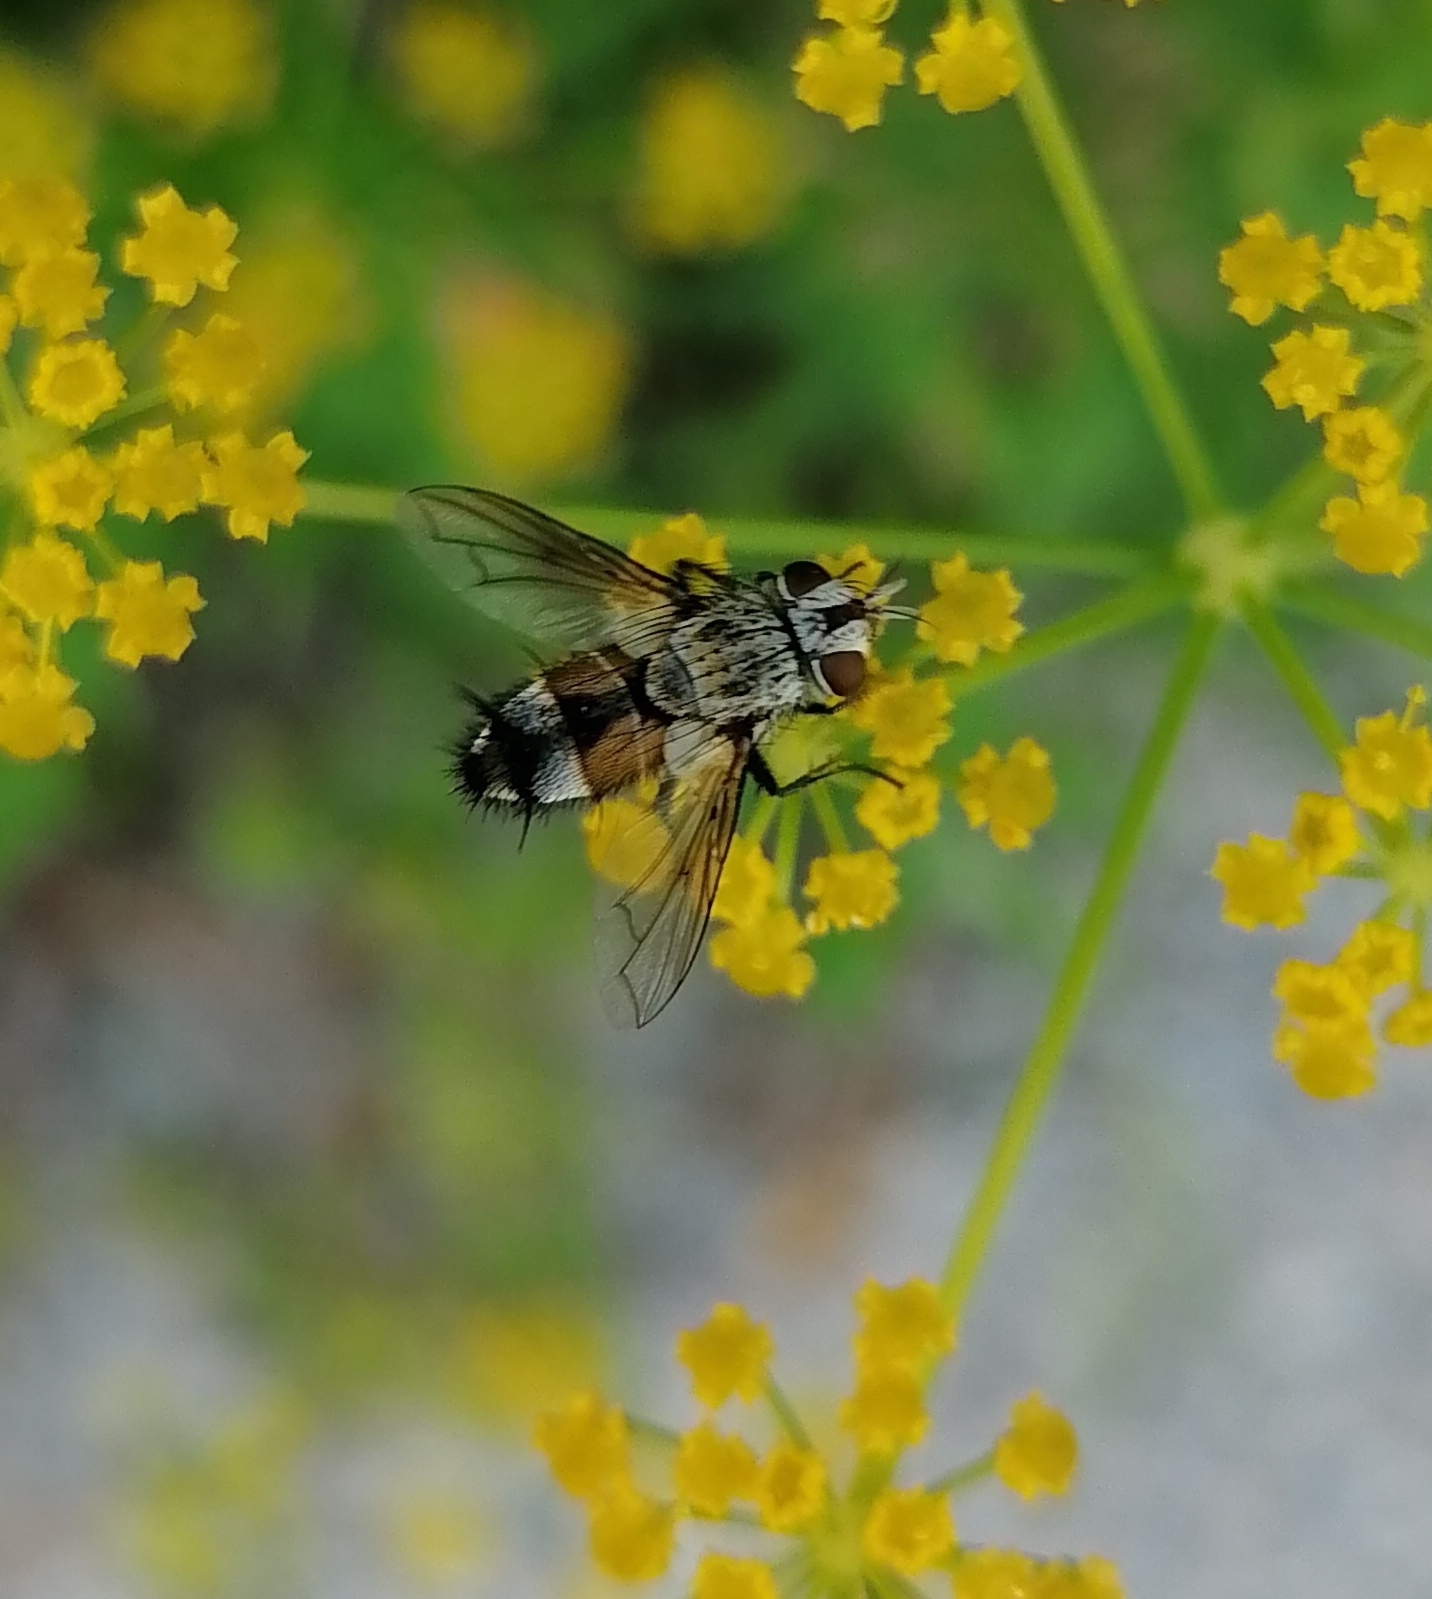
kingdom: Animalia
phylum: Arthropoda
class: Insecta
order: Diptera
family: Tachinidae
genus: Frontina
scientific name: Frontina laeta
